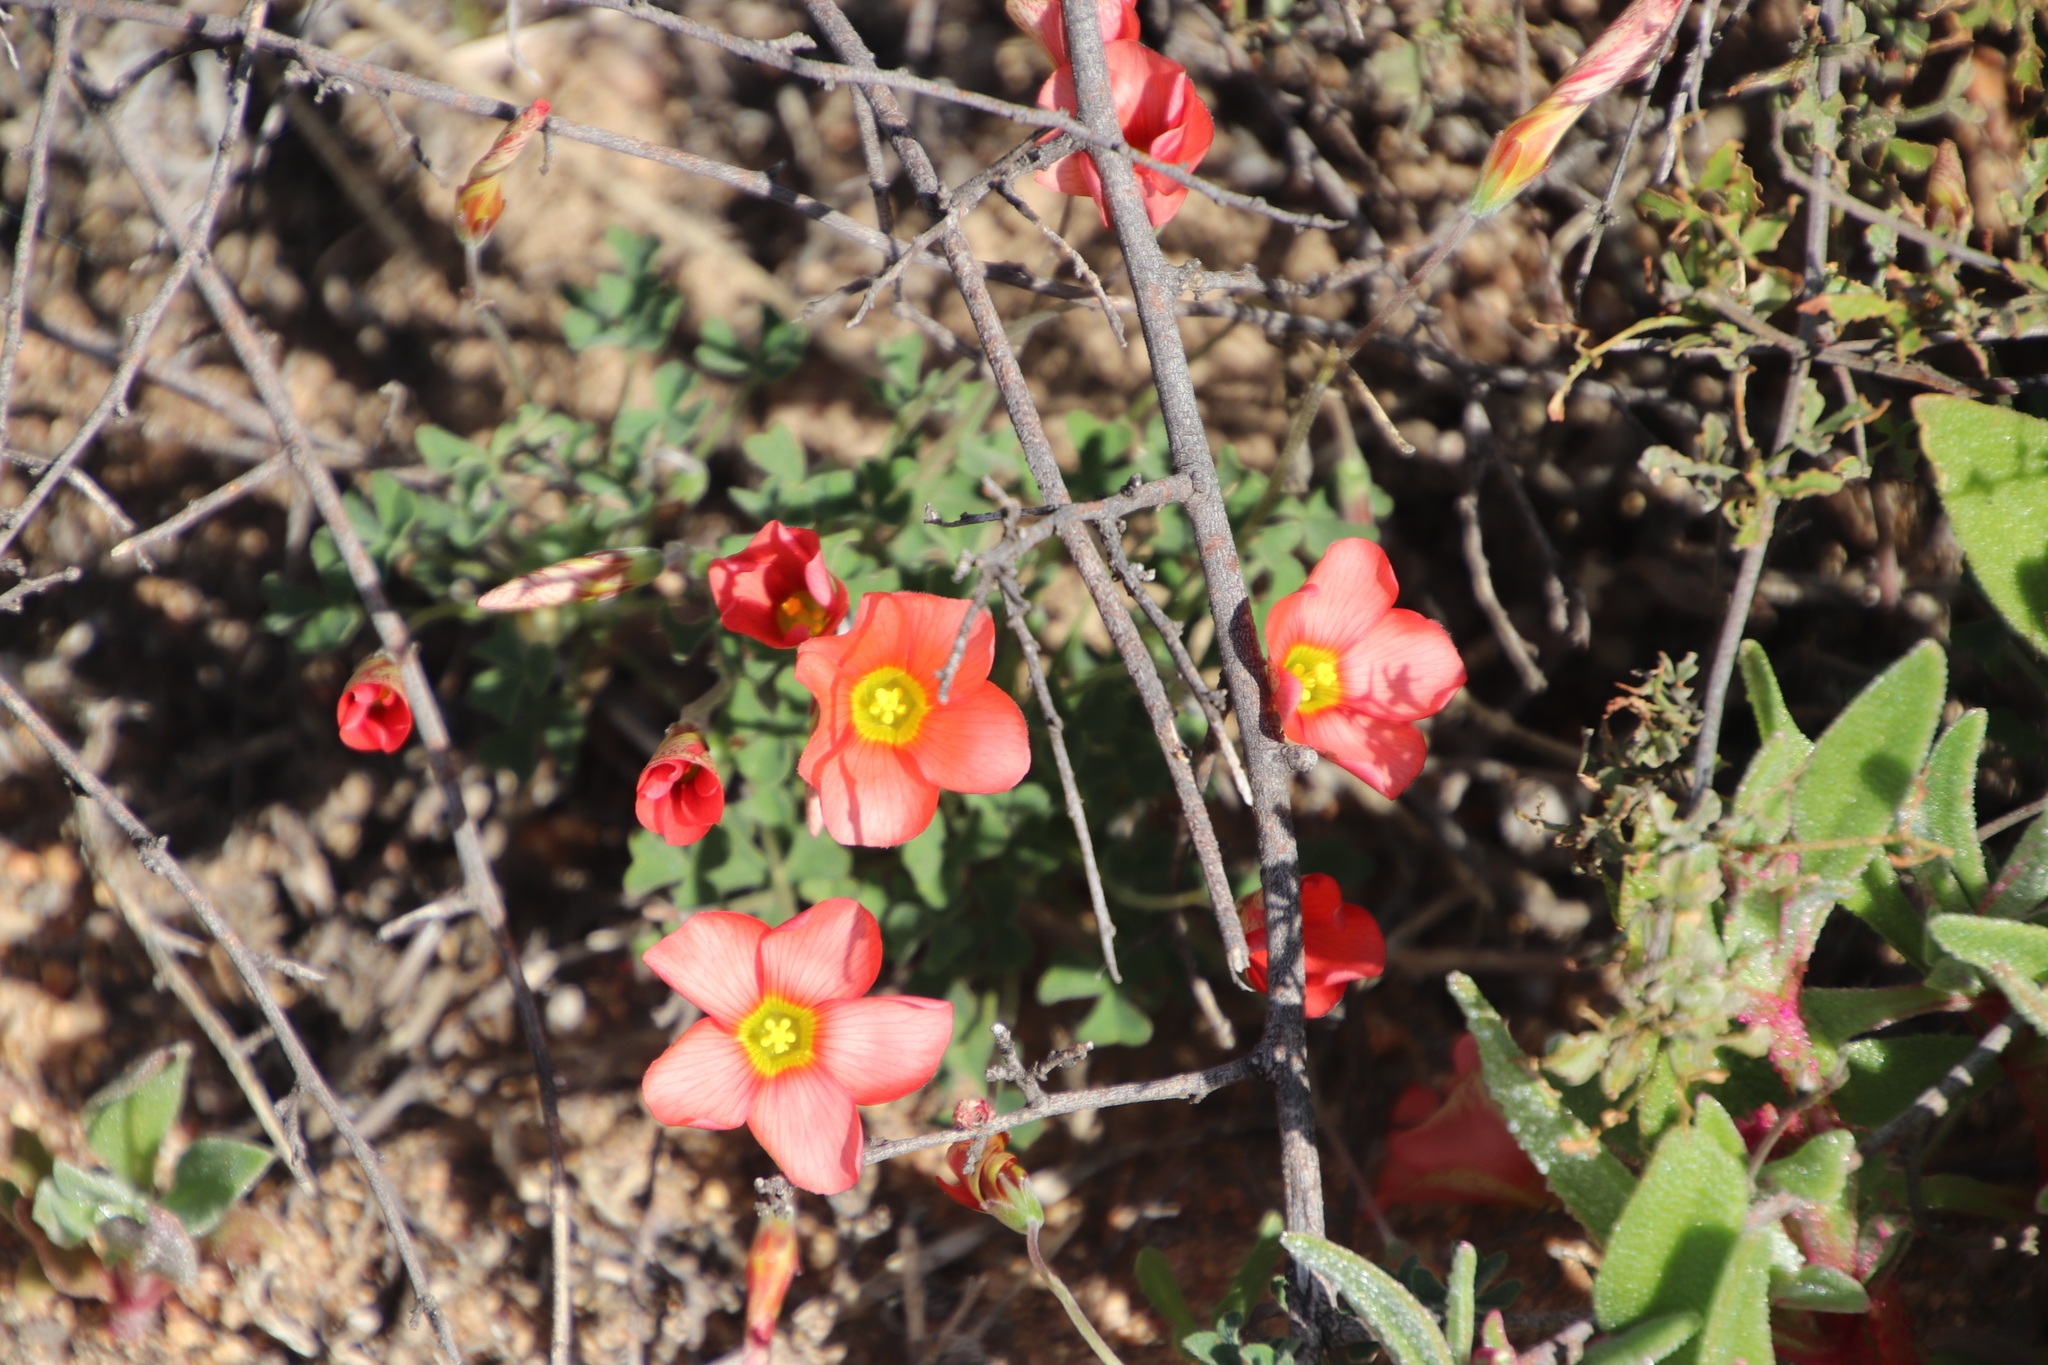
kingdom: Plantae
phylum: Tracheophyta
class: Magnoliopsida
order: Oxalidales
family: Oxalidaceae
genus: Oxalis
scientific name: Oxalis obtusa
